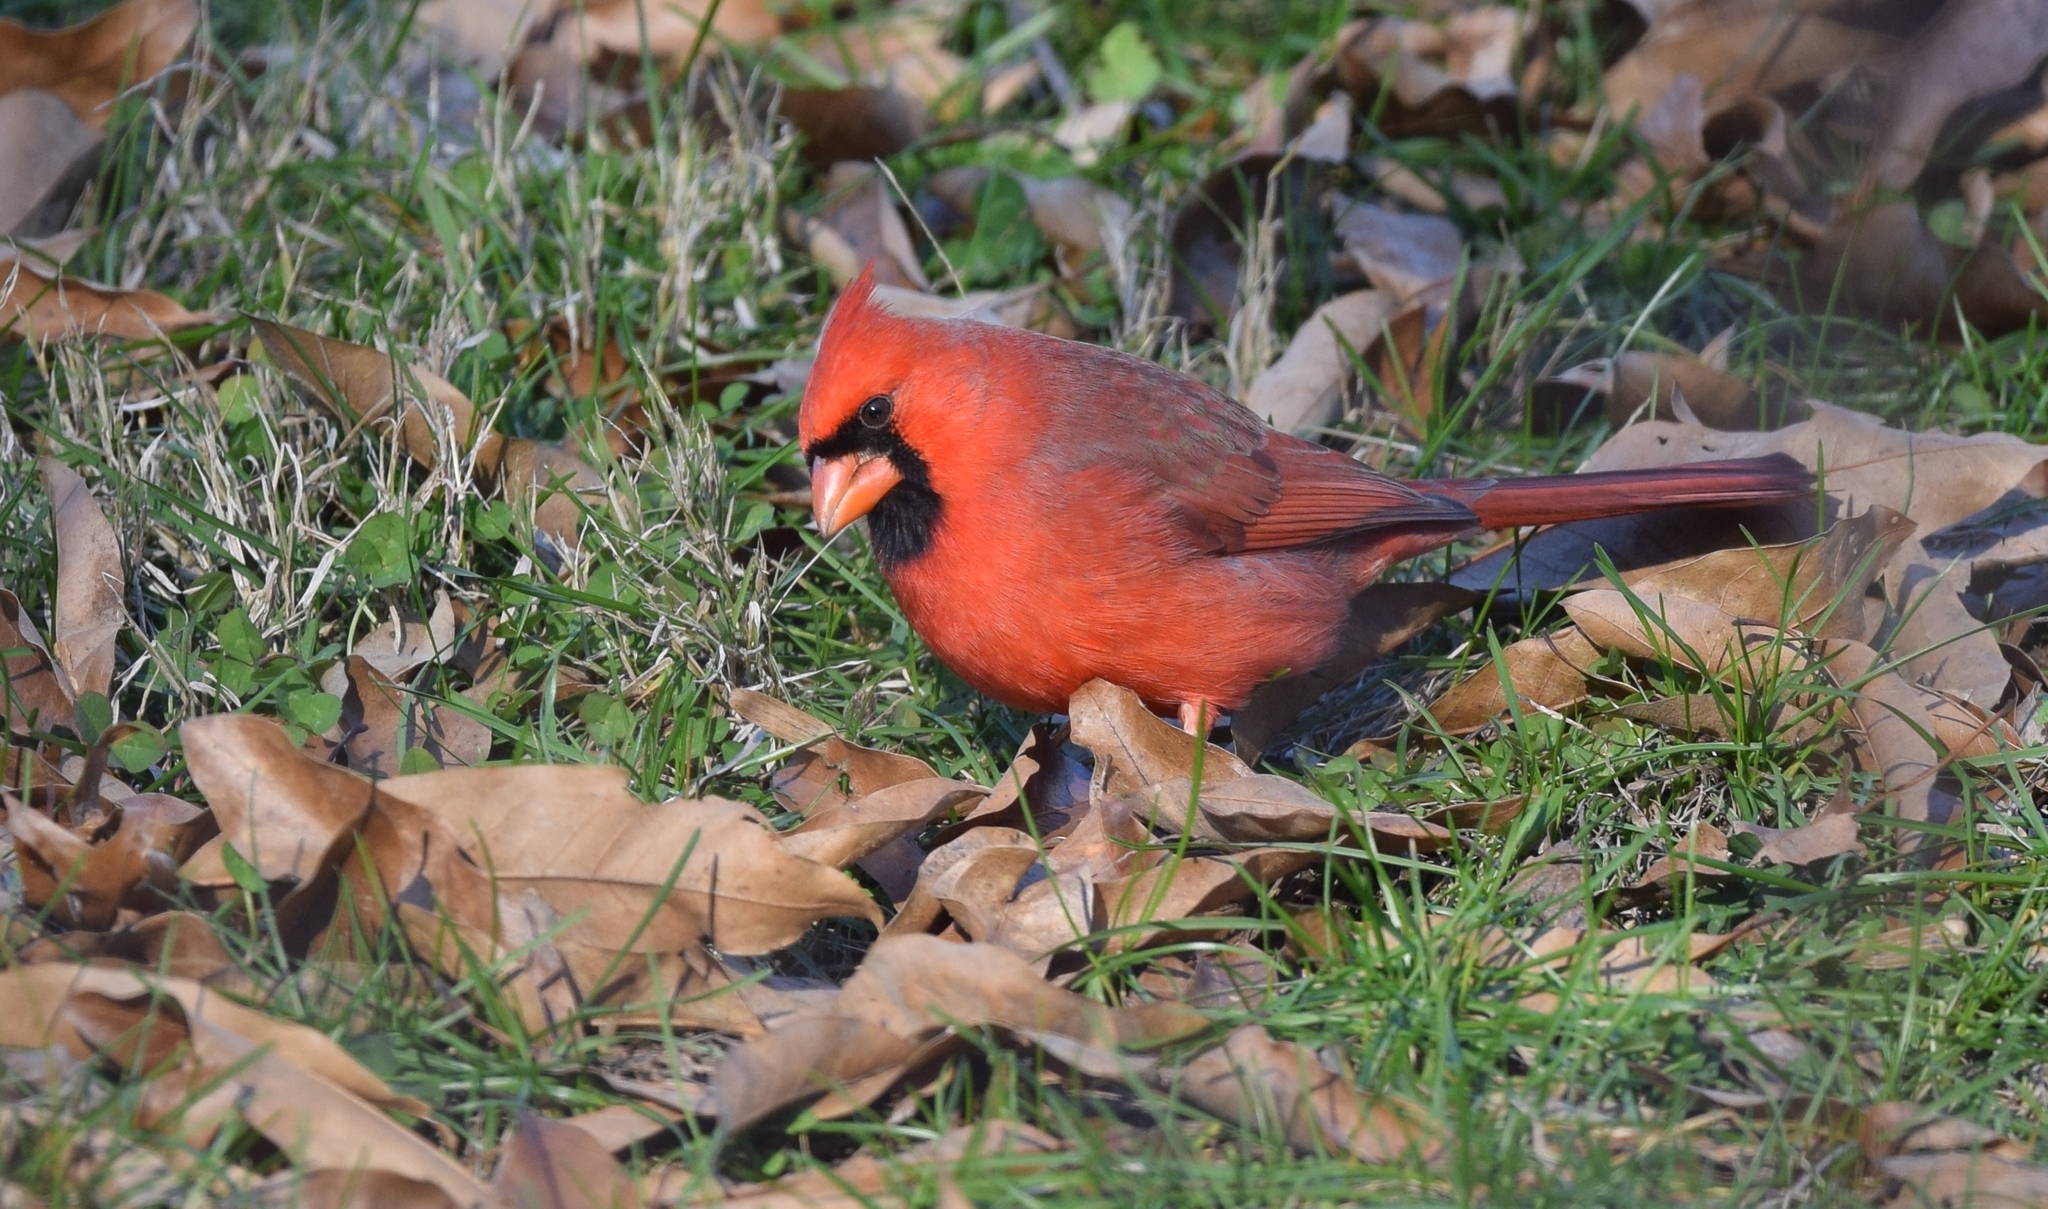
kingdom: Animalia
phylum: Chordata
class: Aves
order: Passeriformes
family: Cardinalidae
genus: Cardinalis
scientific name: Cardinalis cardinalis
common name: Northern cardinal
